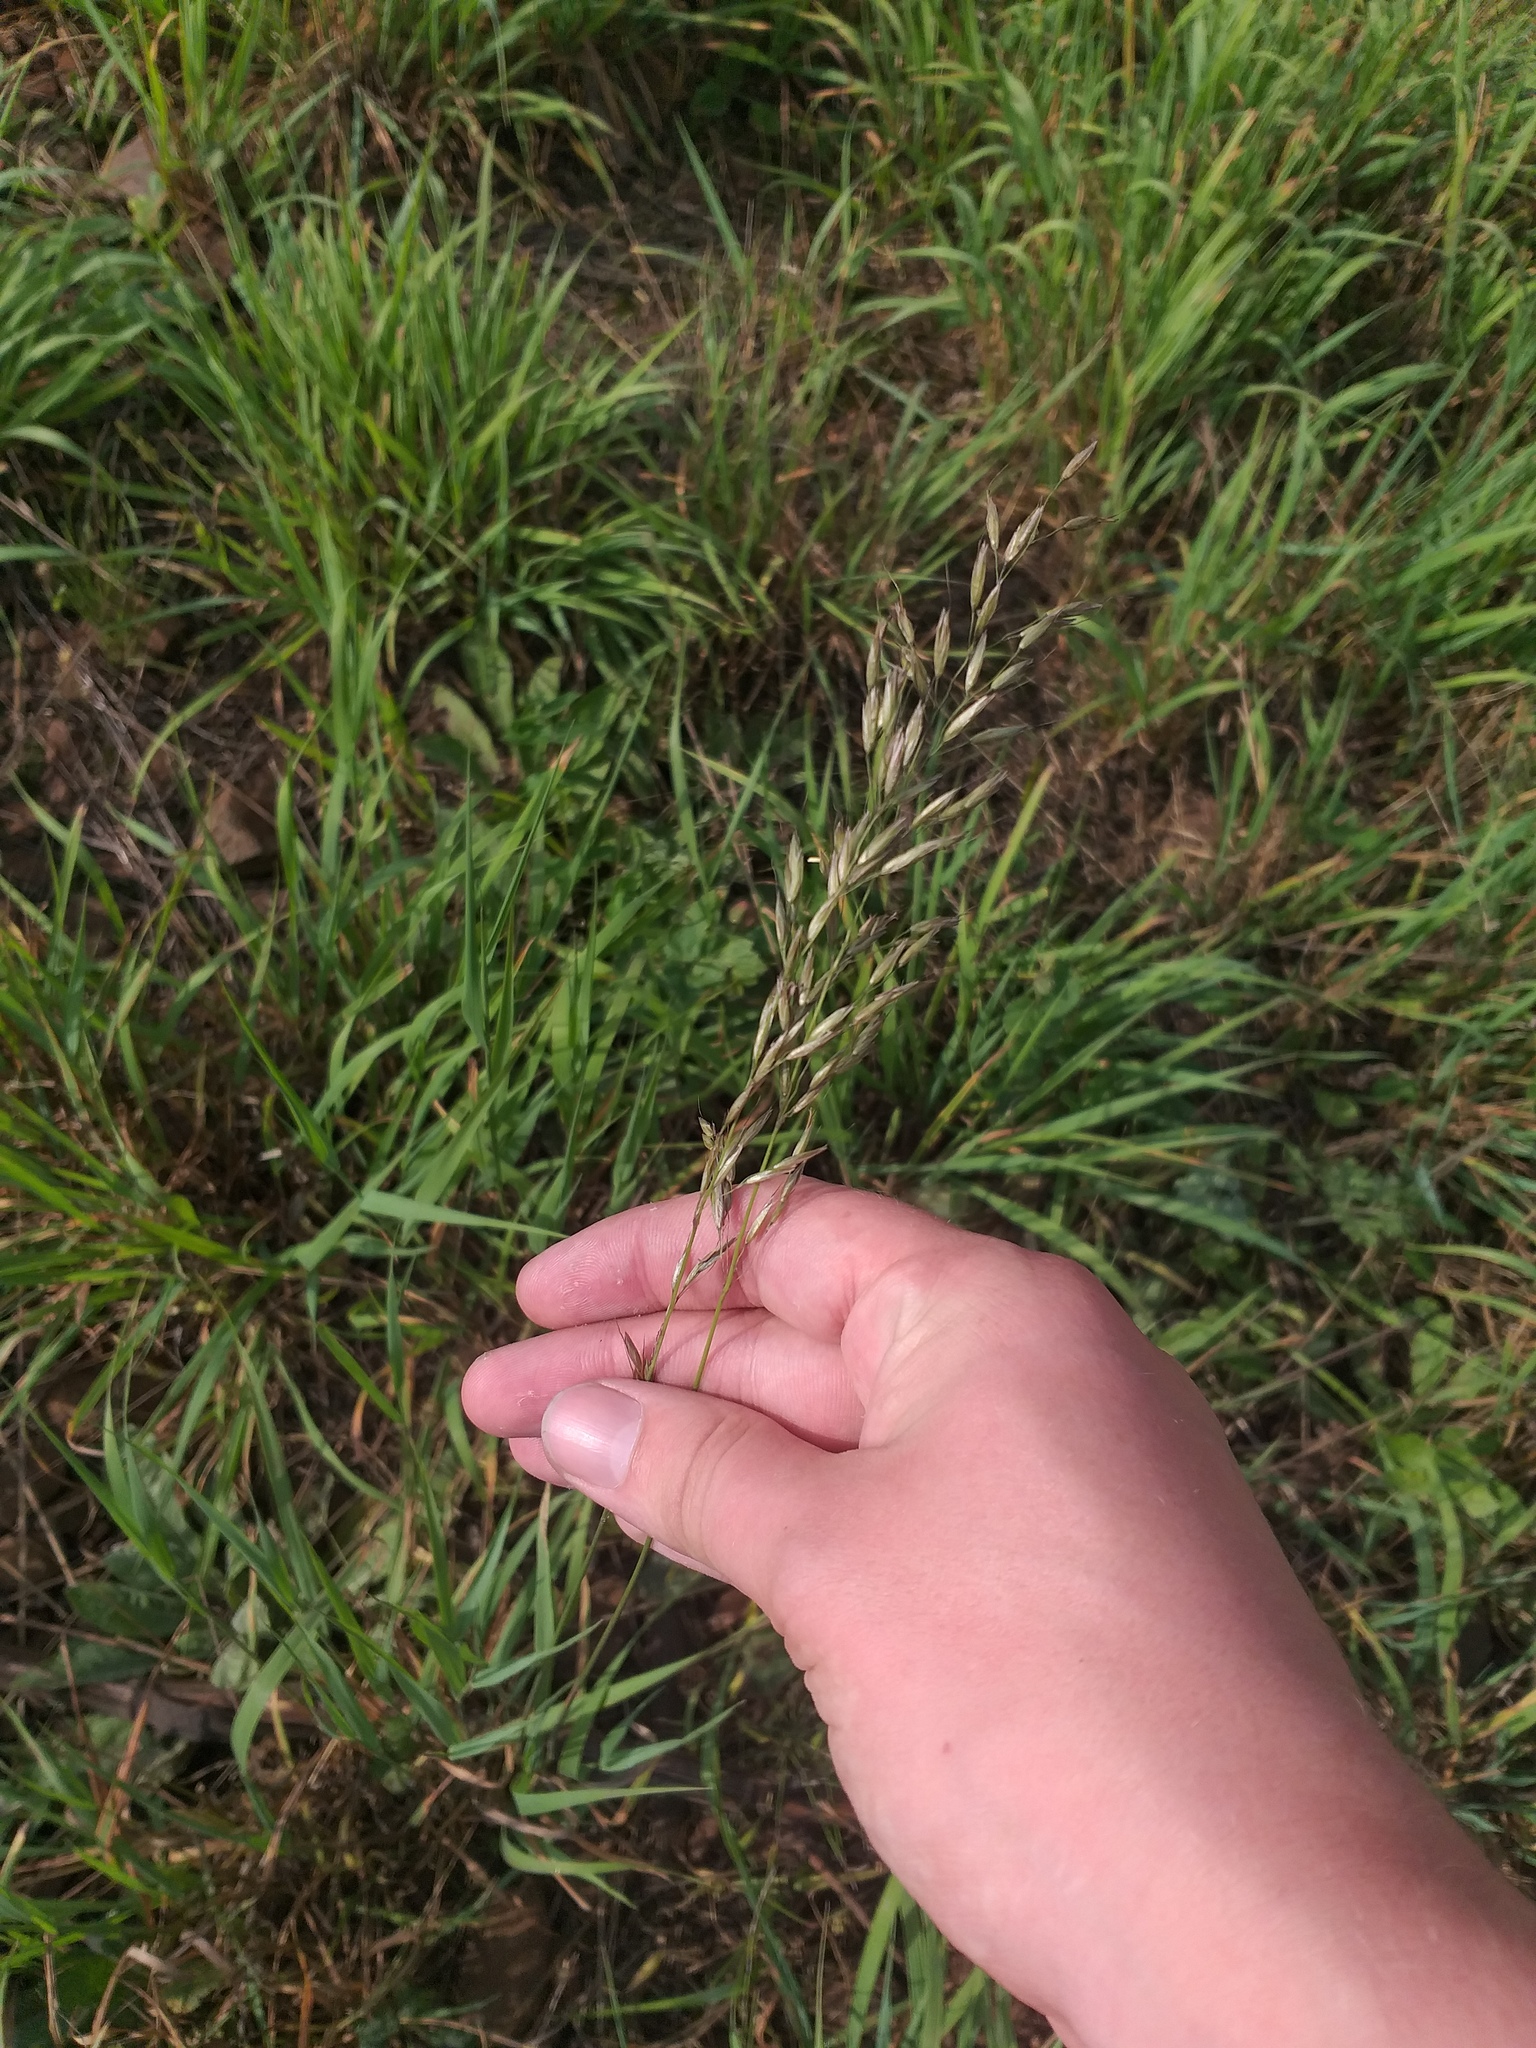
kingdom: Plantae
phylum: Tracheophyta
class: Liliopsida
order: Poales
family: Poaceae
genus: Arrhenatherum
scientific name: Arrhenatherum elatius
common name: Tall oatgrass
